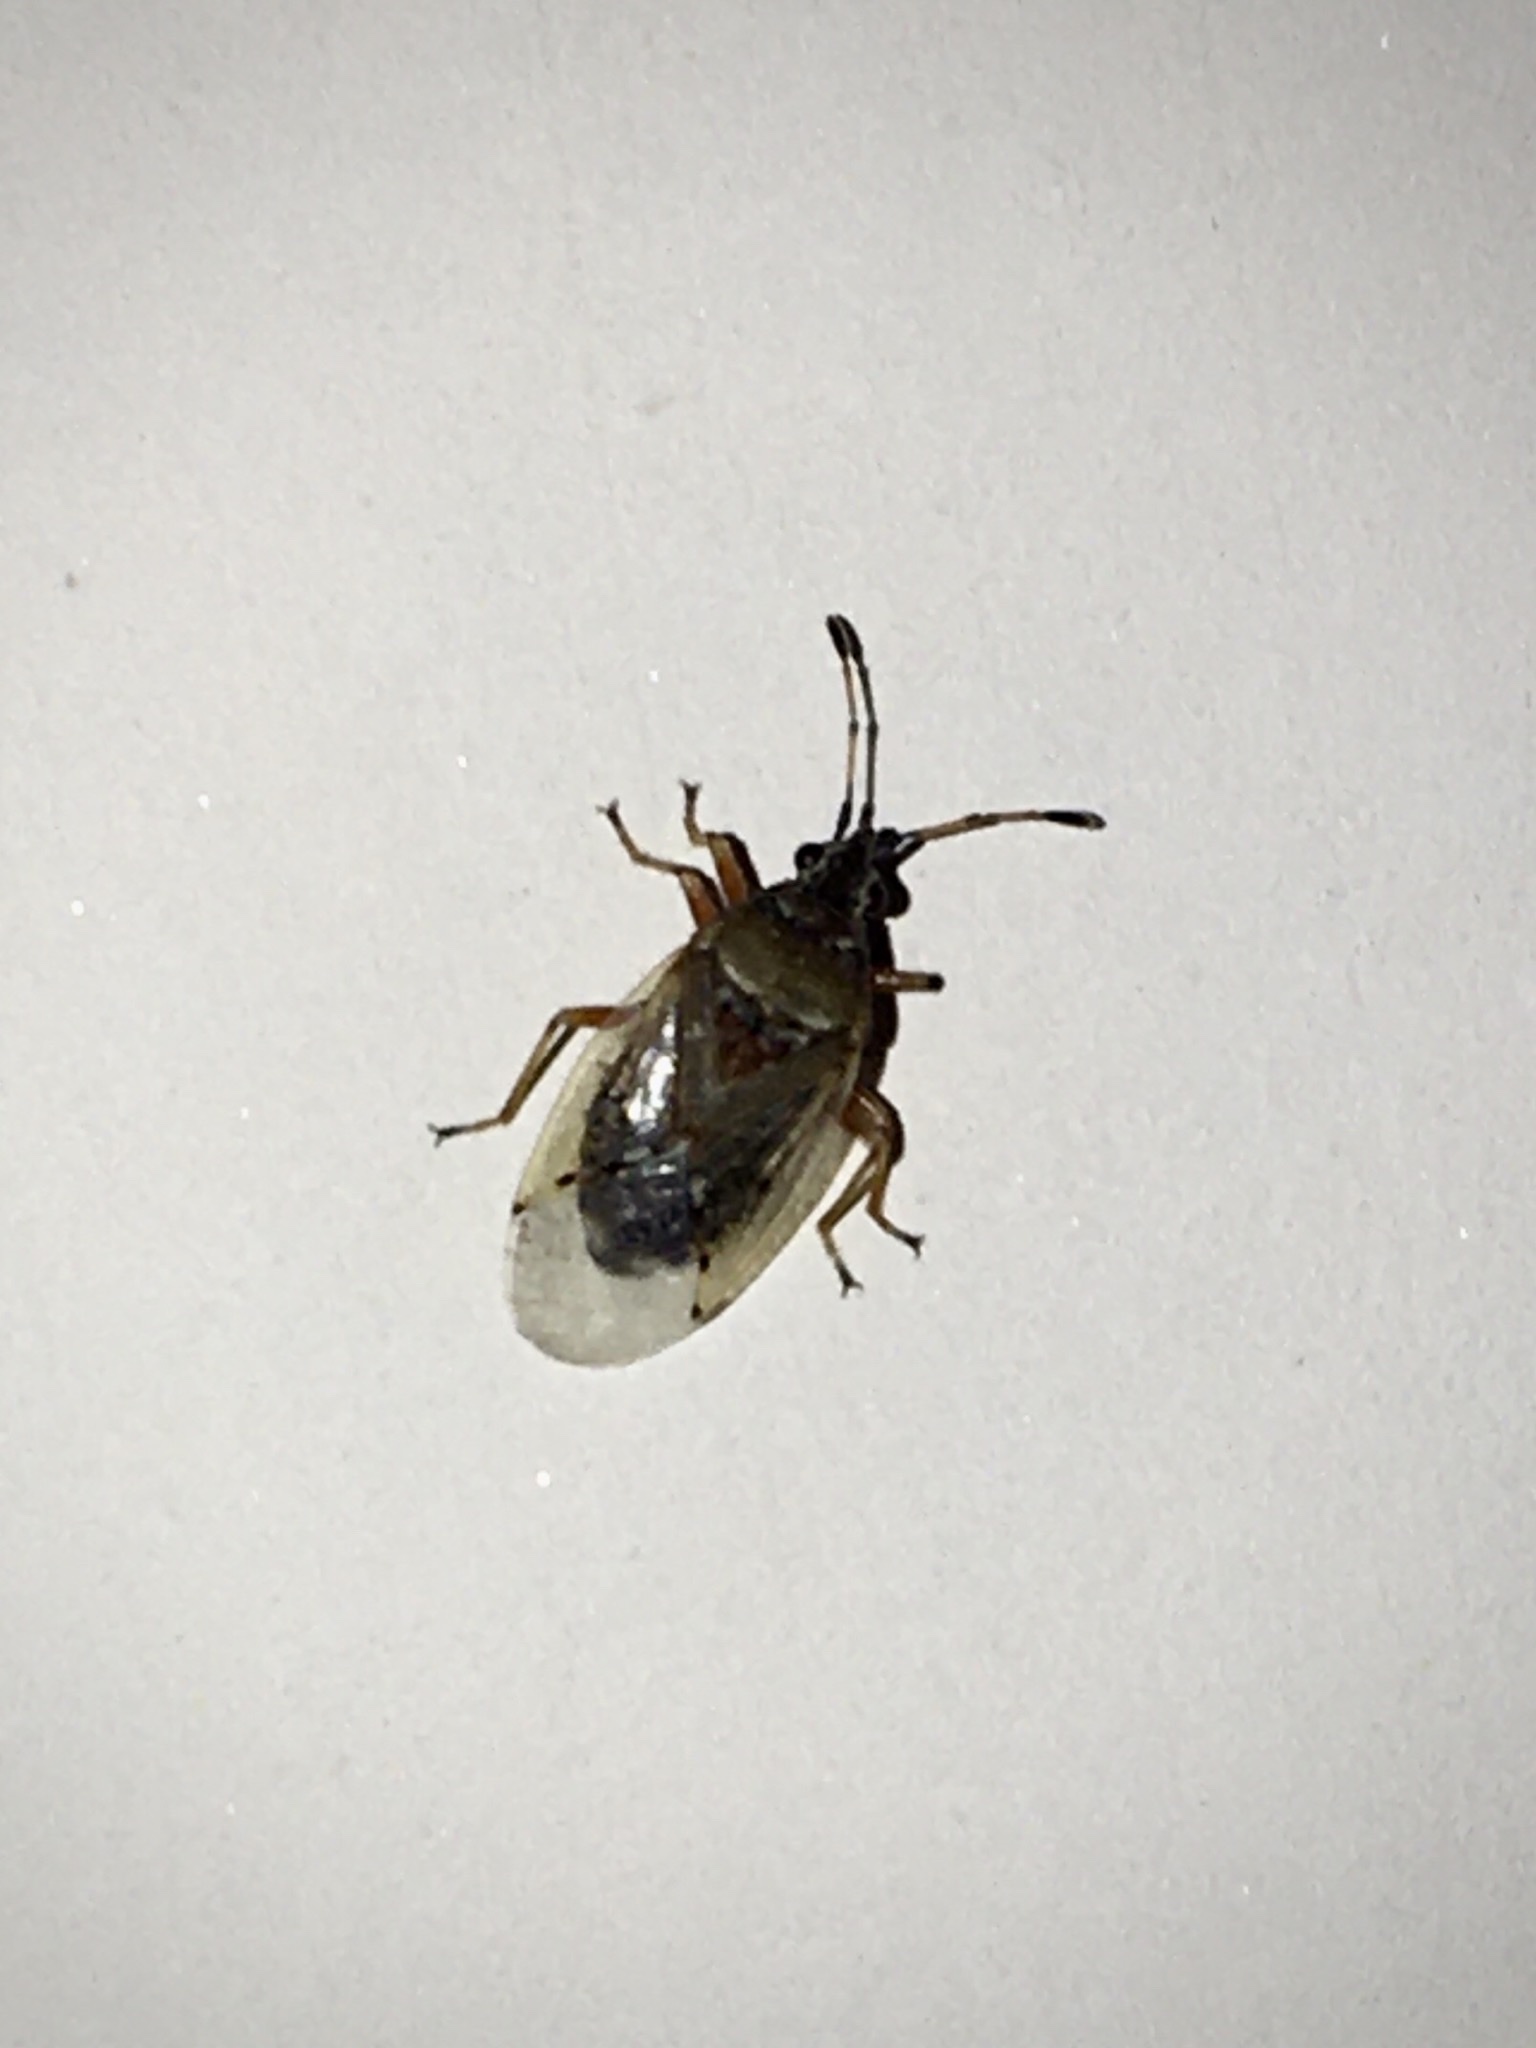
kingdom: Animalia
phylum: Arthropoda
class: Insecta
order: Hemiptera
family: Lygaeidae
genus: Kleidocerys
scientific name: Kleidocerys resedae
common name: Birch catkin bug
